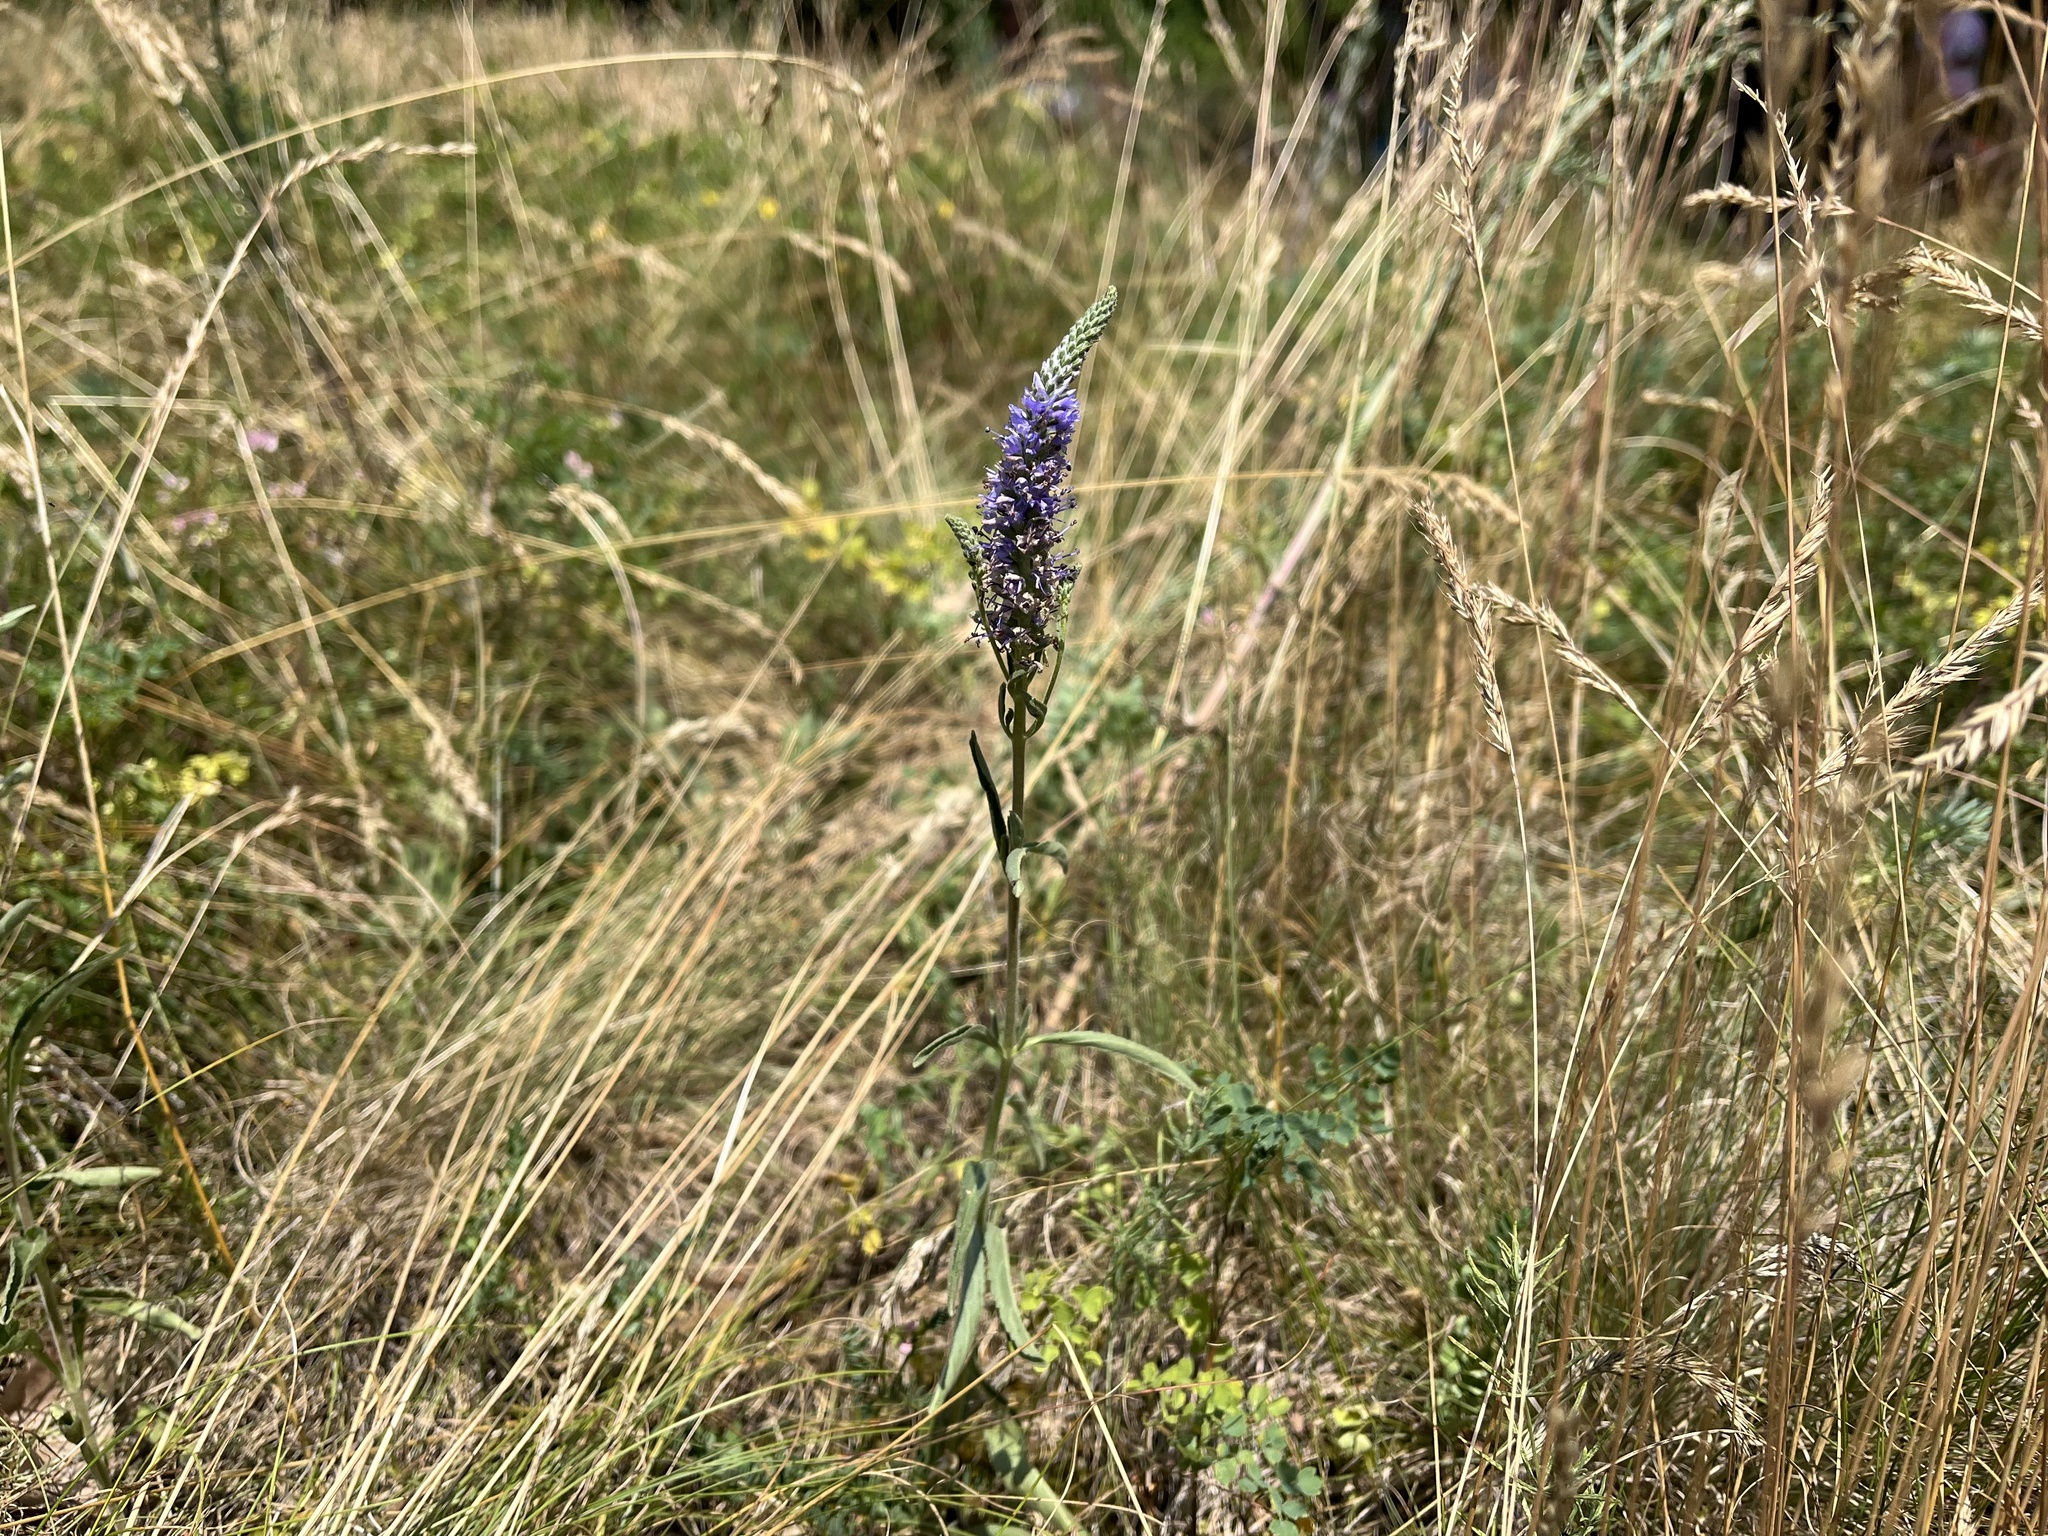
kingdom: Plantae
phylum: Tracheophyta
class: Magnoliopsida
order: Lamiales
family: Plantaginaceae
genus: Veronica
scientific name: Veronica spicata
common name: Spiked speedwell
